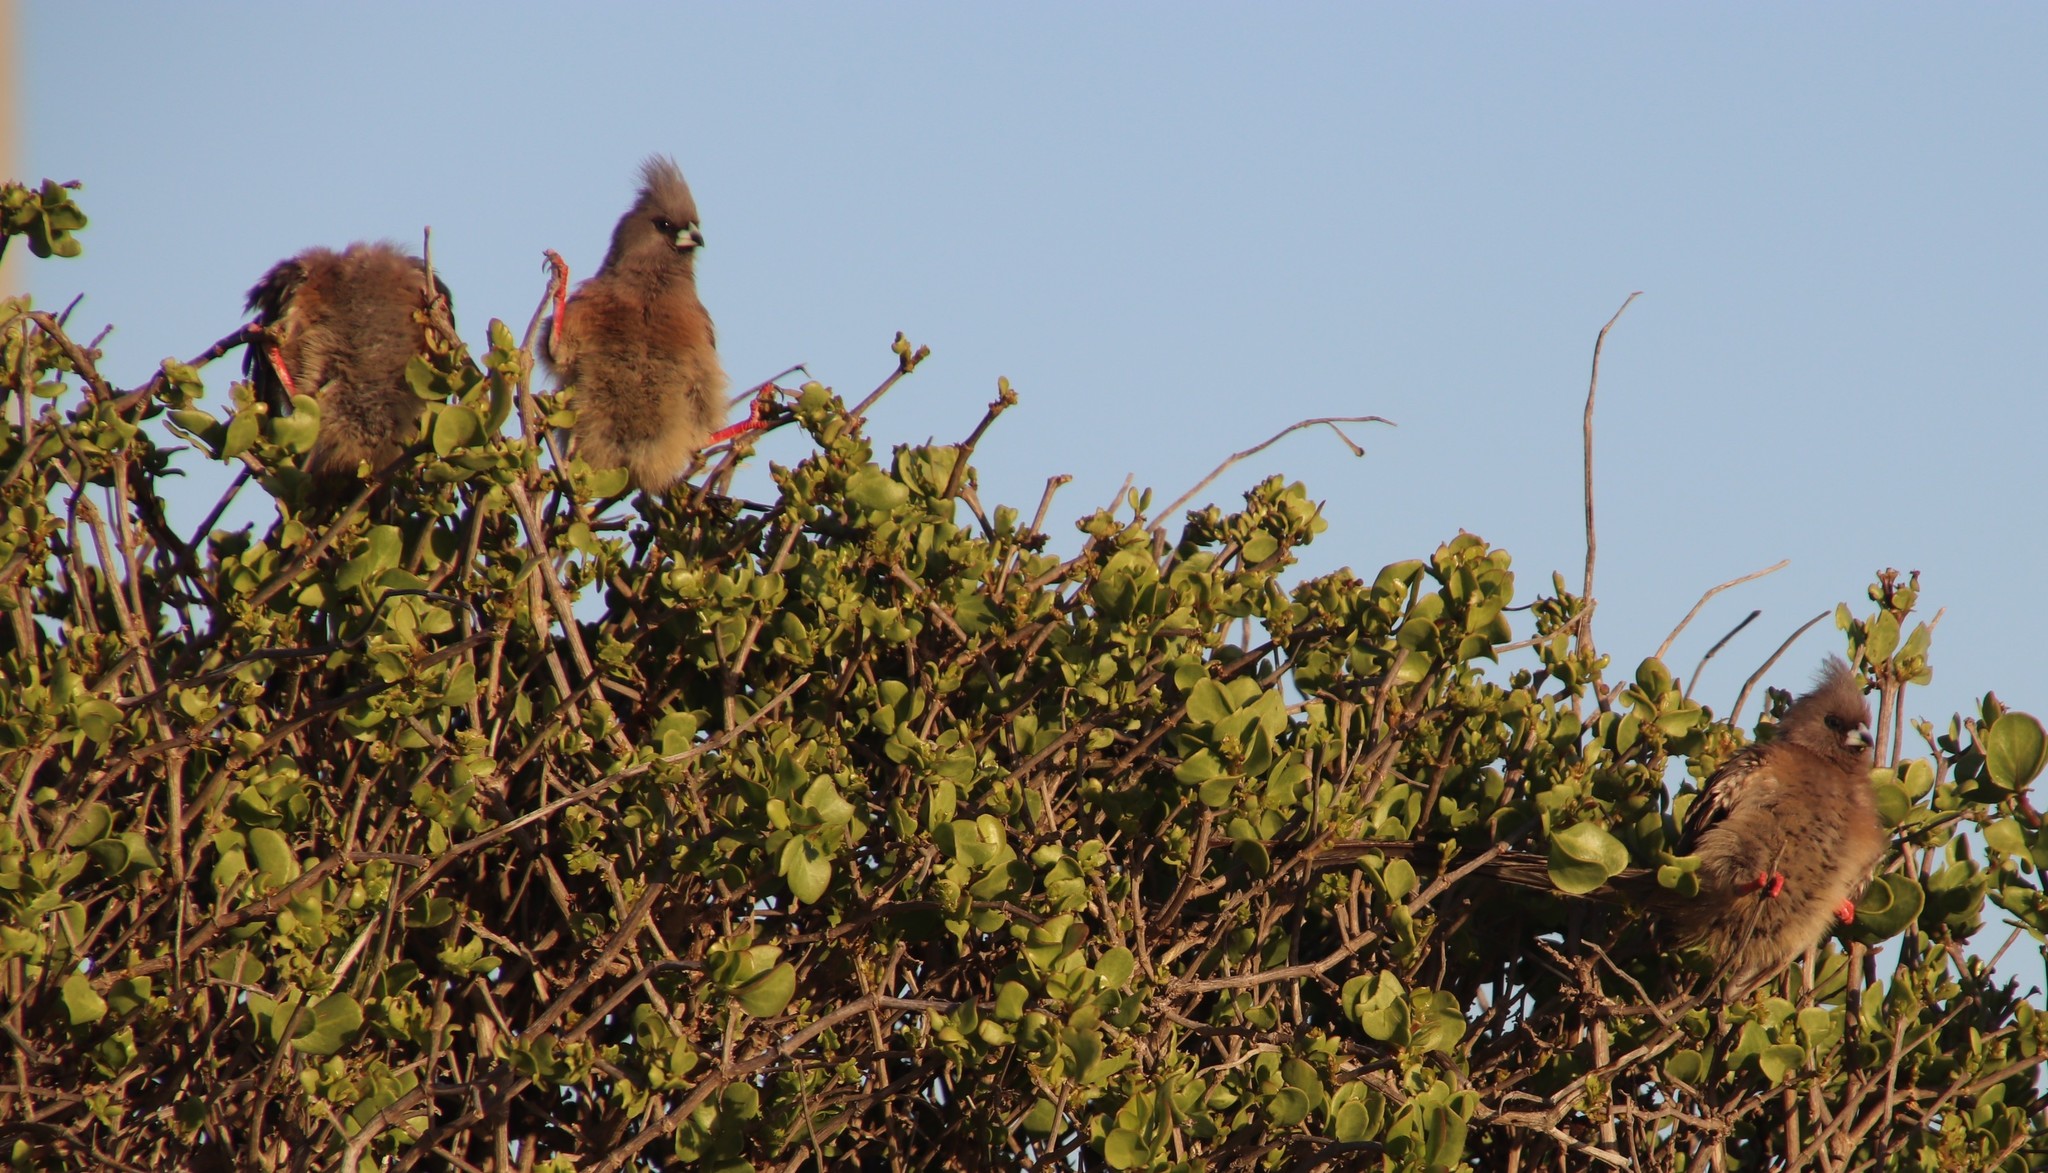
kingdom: Animalia
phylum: Chordata
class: Aves
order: Coliiformes
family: Coliidae
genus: Colius
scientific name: Colius striatus
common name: Speckled mousebird
